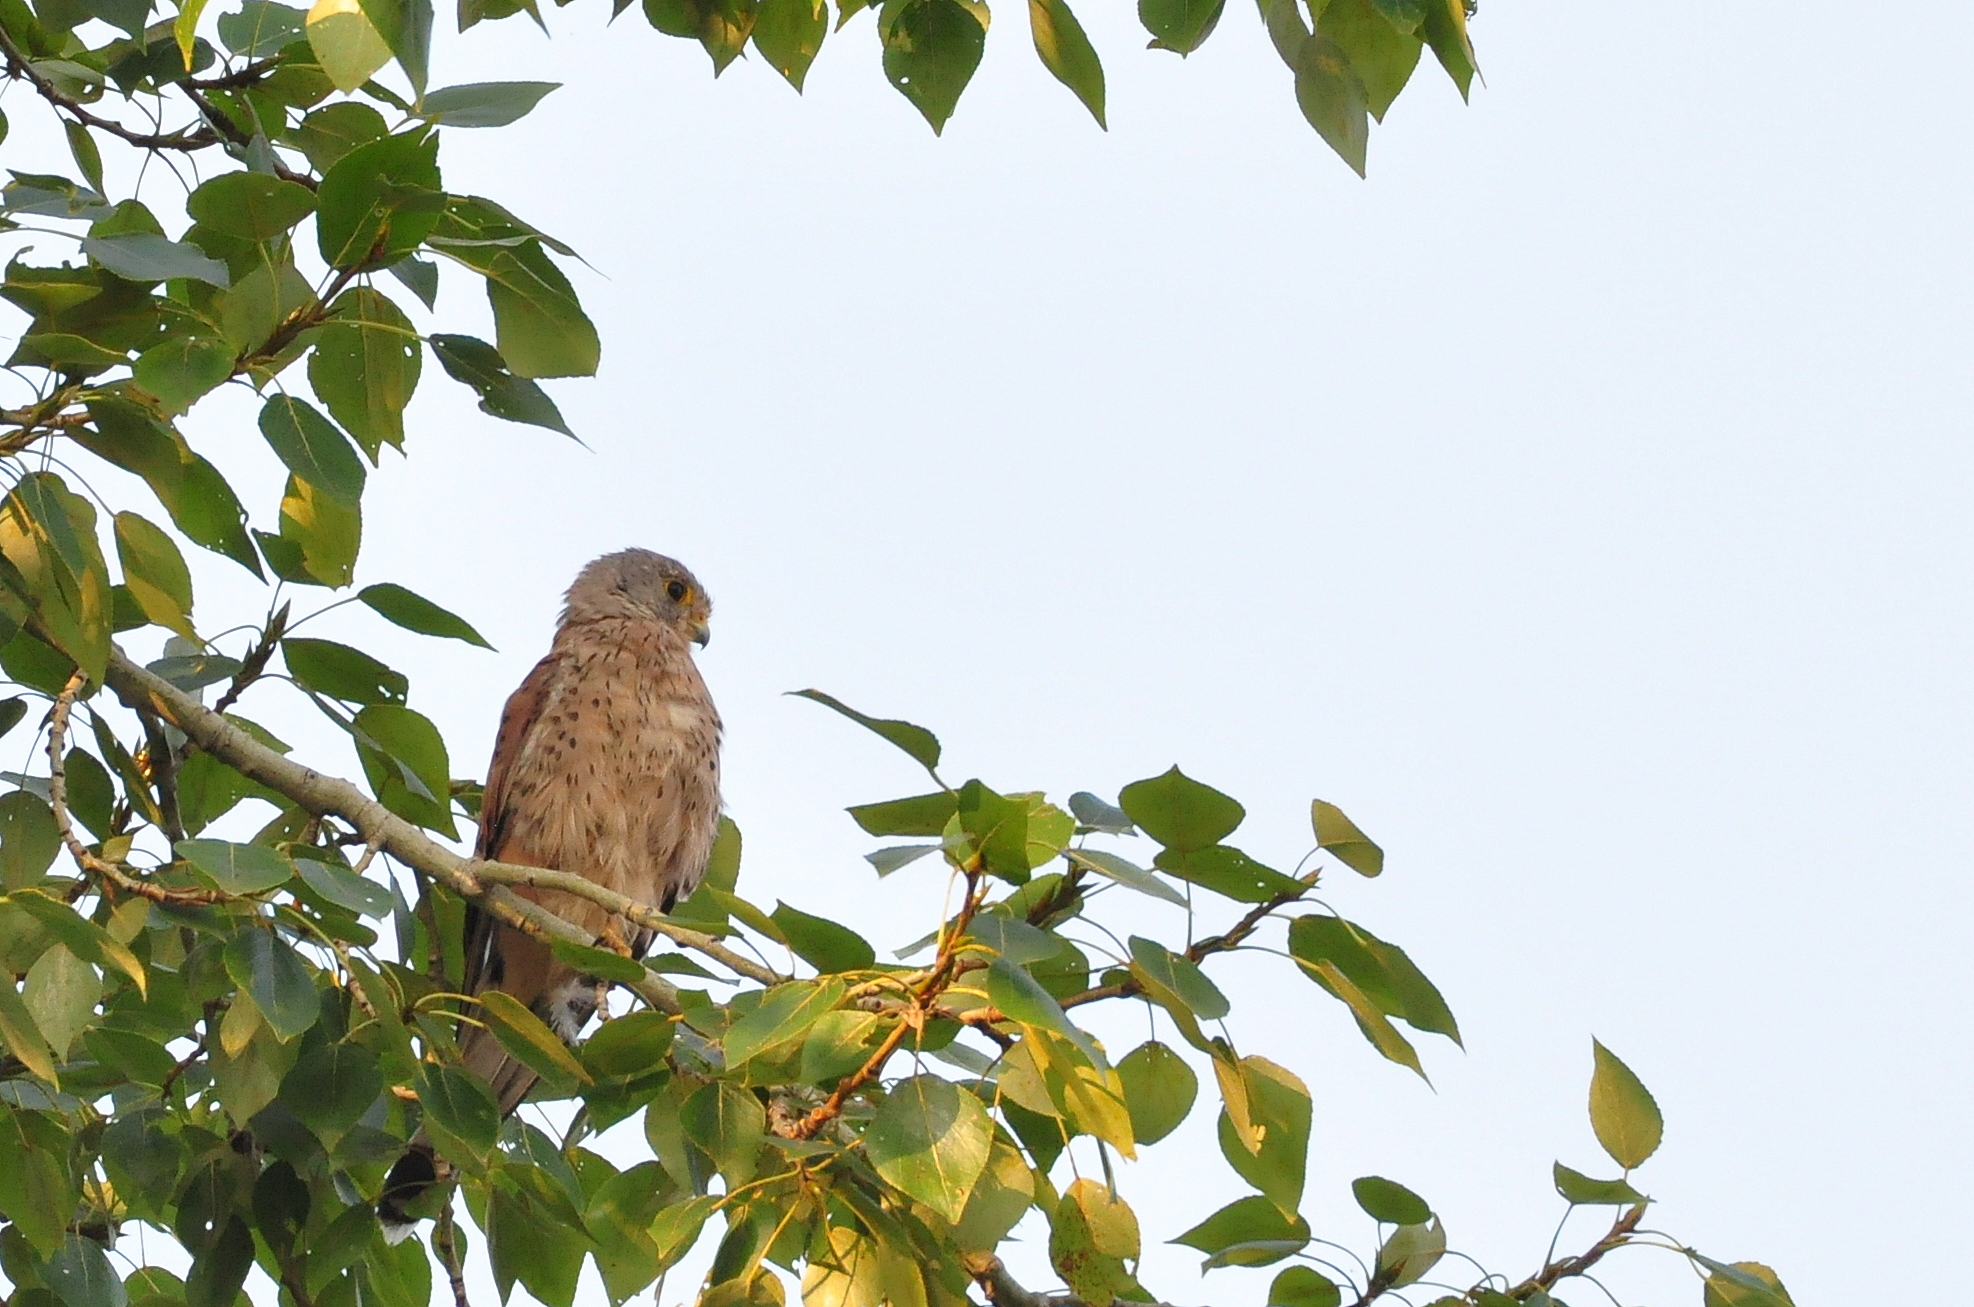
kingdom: Animalia
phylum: Chordata
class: Aves
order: Falconiformes
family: Falconidae
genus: Falco
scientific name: Falco tinnunculus
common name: Common kestrel
